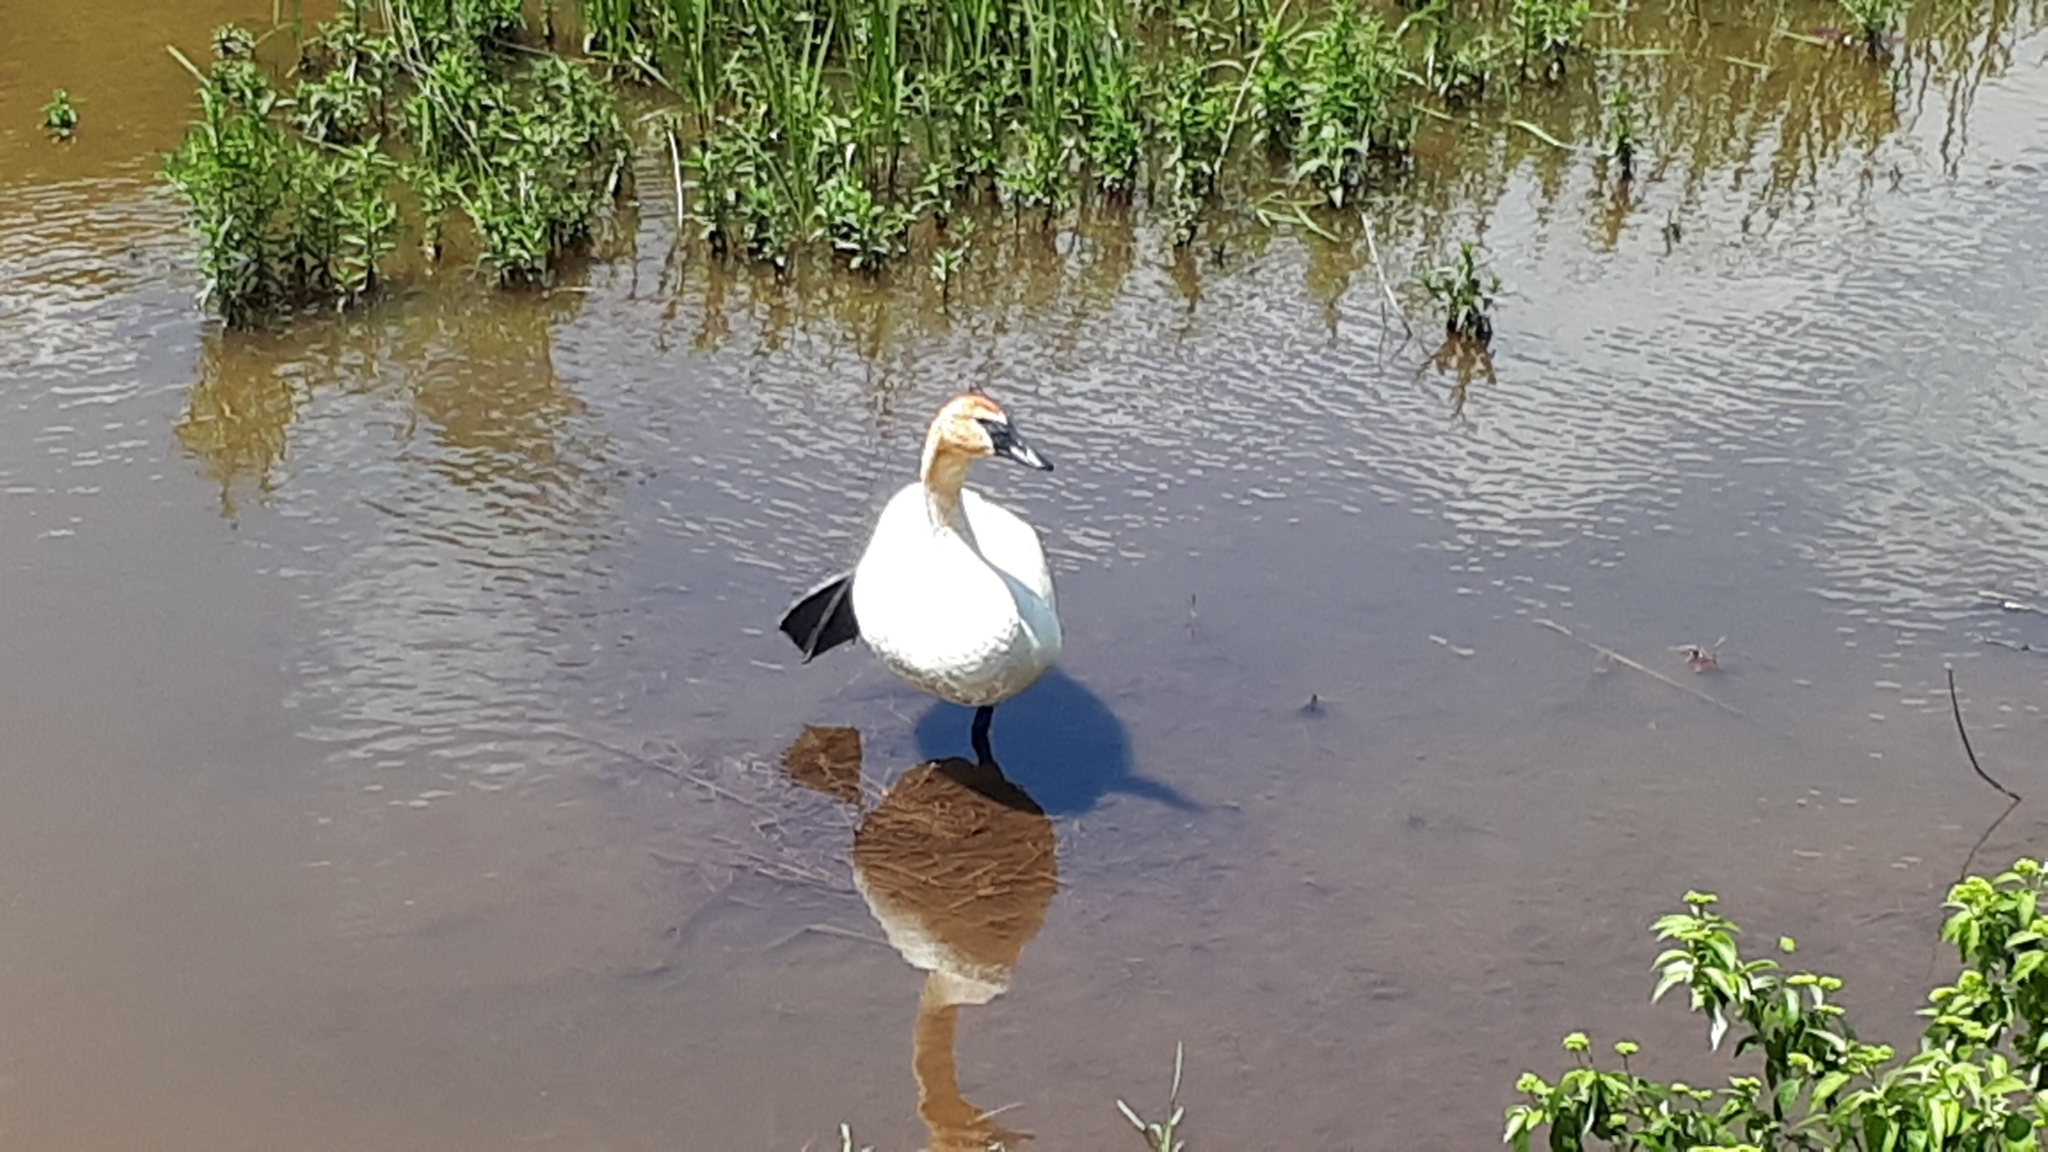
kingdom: Animalia
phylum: Chordata
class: Aves
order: Anseriformes
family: Anatidae
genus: Cygnus
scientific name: Cygnus buccinator
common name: Trumpeter swan
